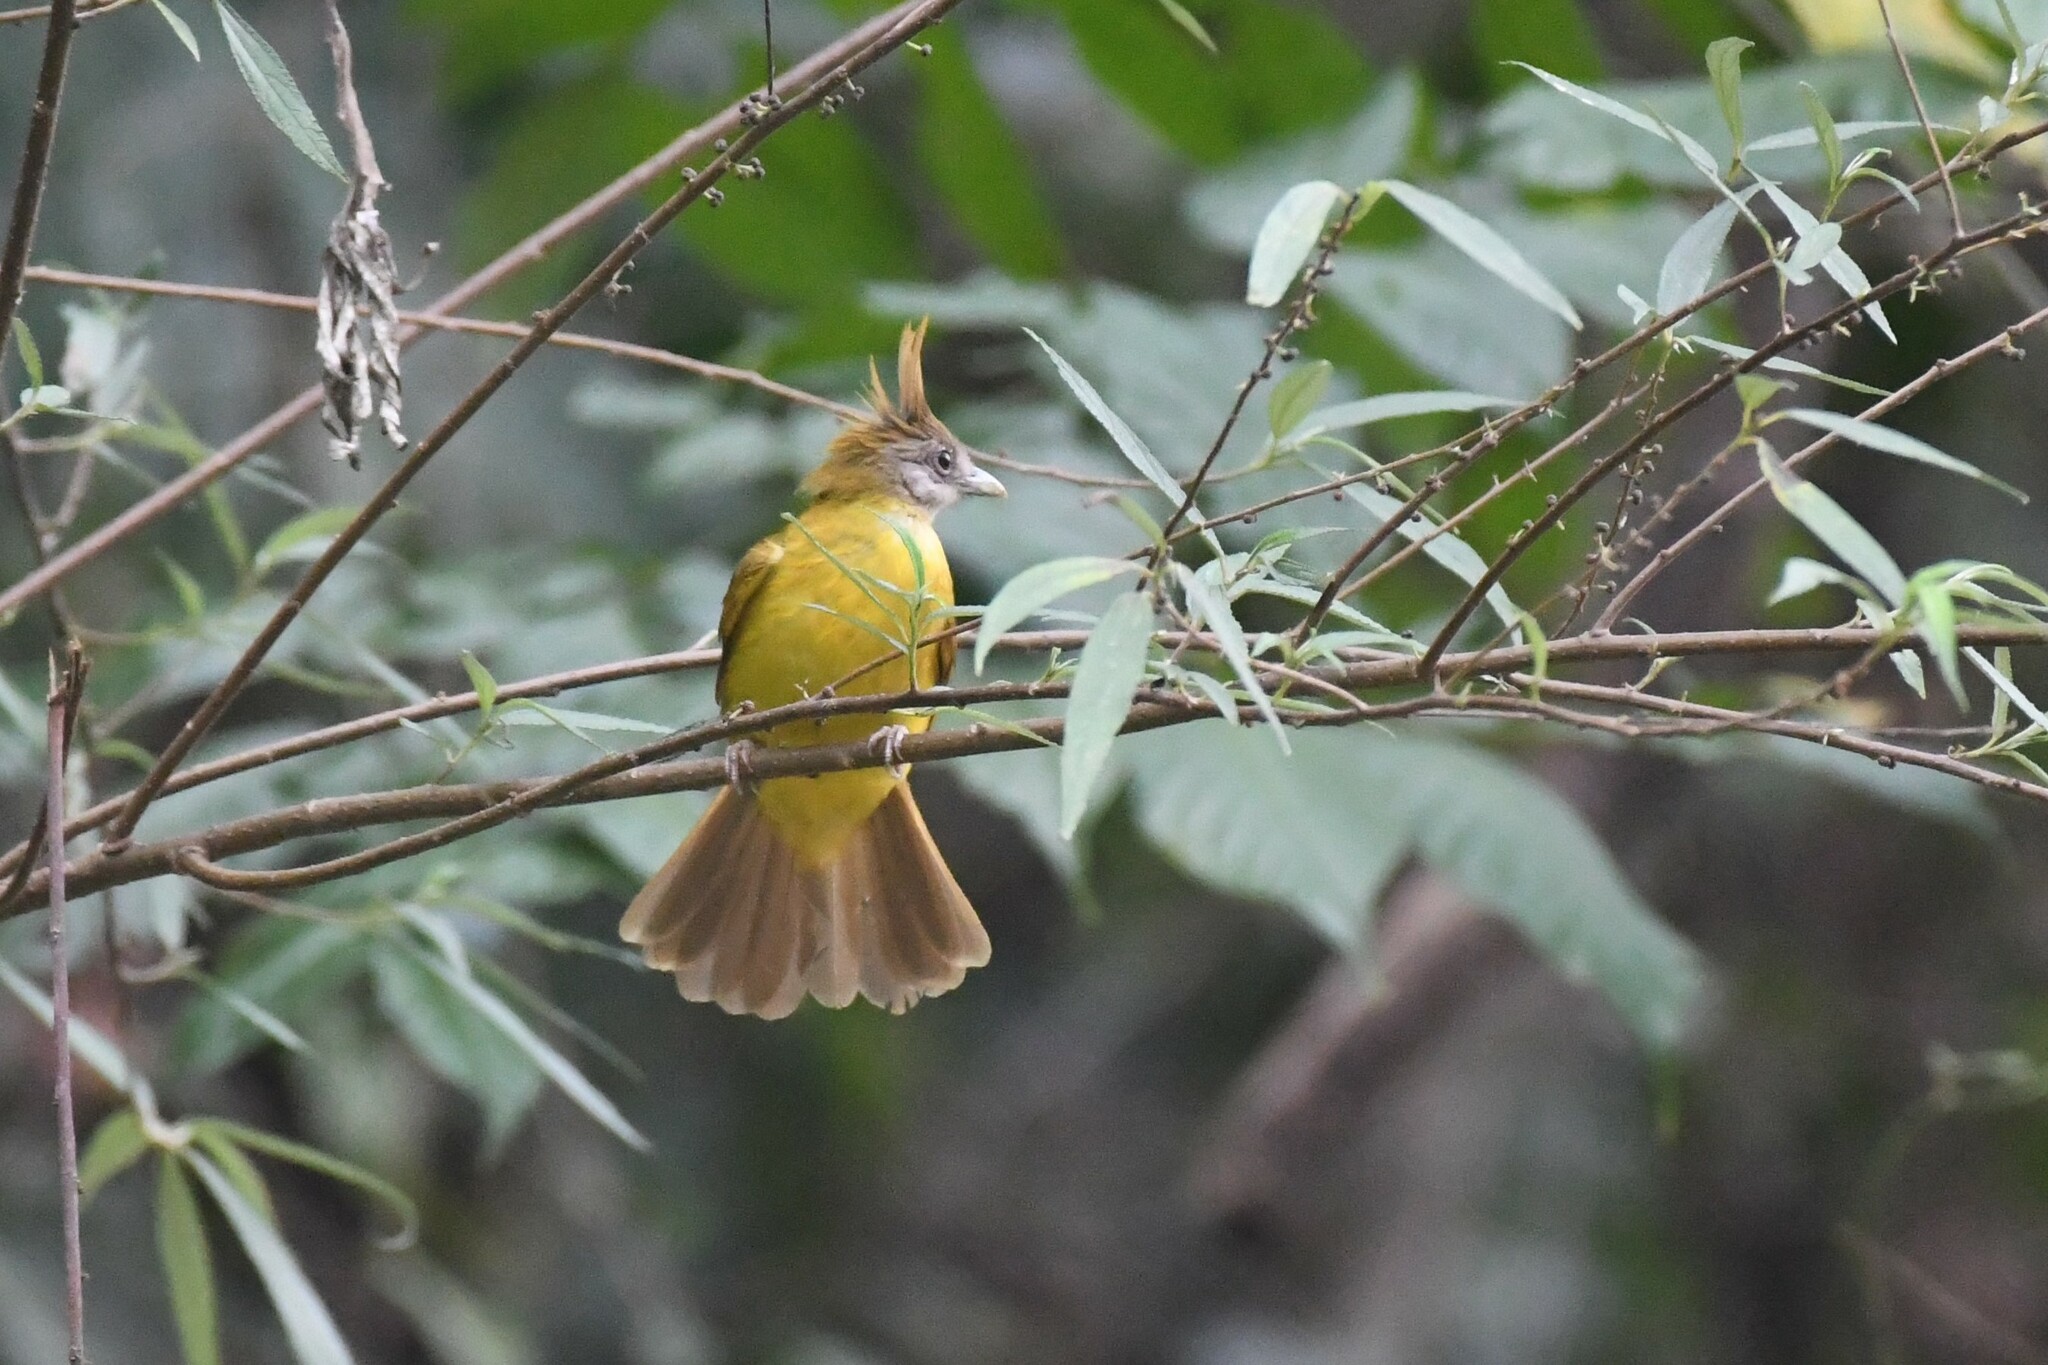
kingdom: Animalia
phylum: Chordata
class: Aves
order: Passeriformes
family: Pycnonotidae
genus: Alophoixus
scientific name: Alophoixus flaveolus
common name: White-throated bulbul
